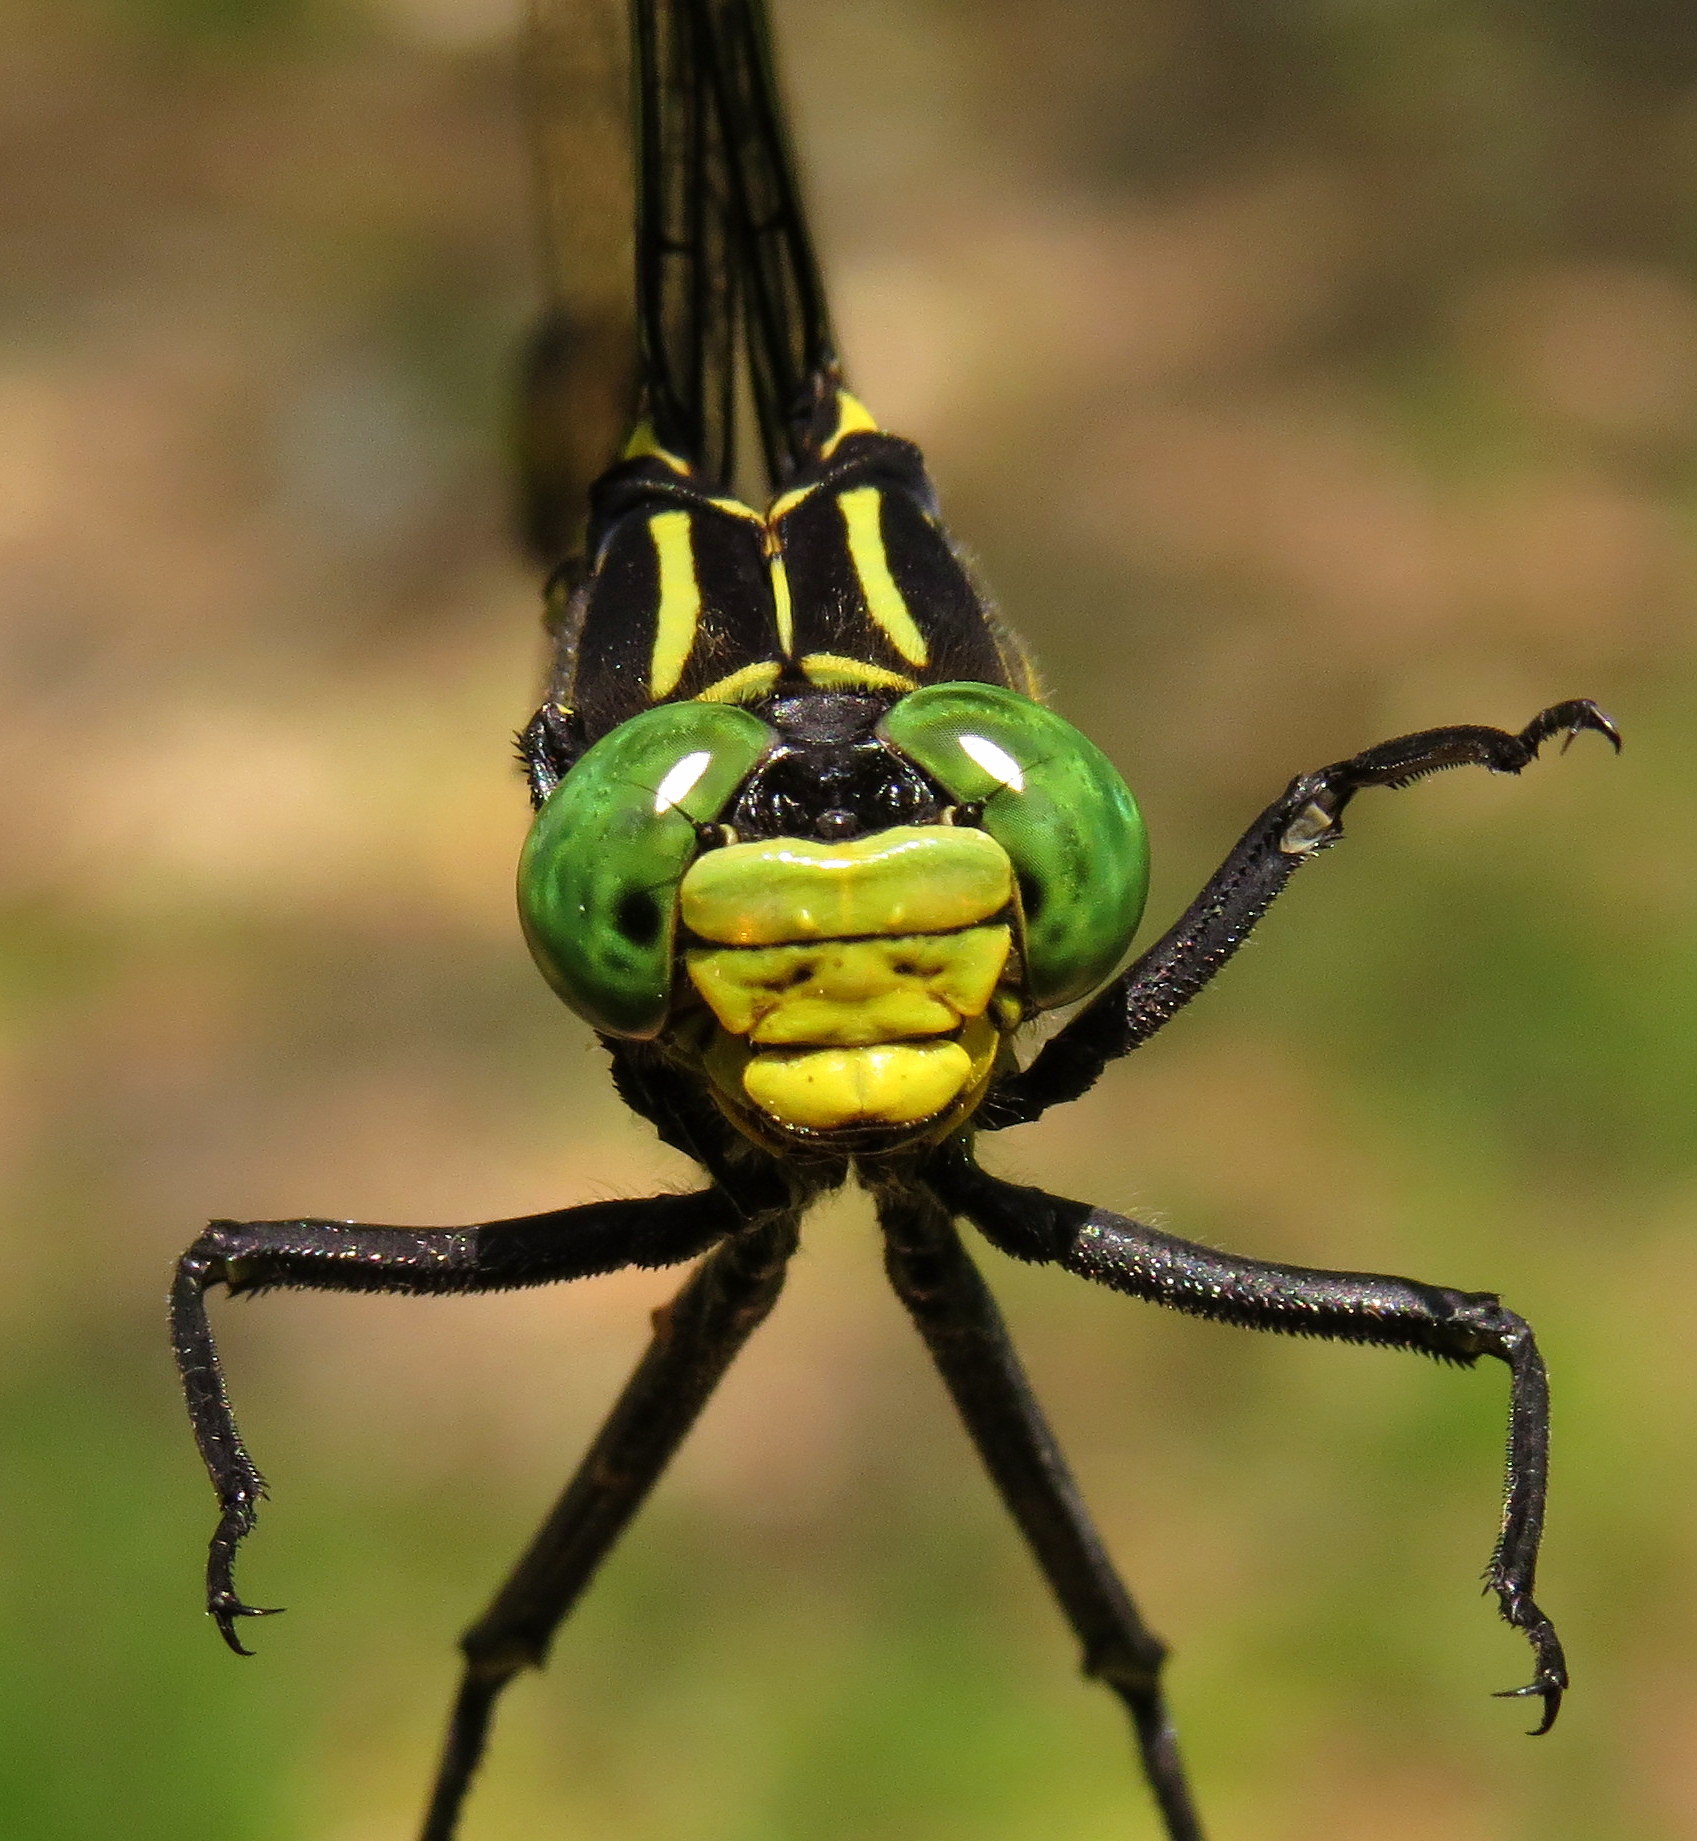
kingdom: Animalia
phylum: Arthropoda
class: Insecta
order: Odonata
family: Gomphidae
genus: Hagenius
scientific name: Hagenius brevistylus
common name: Dragonhunter
